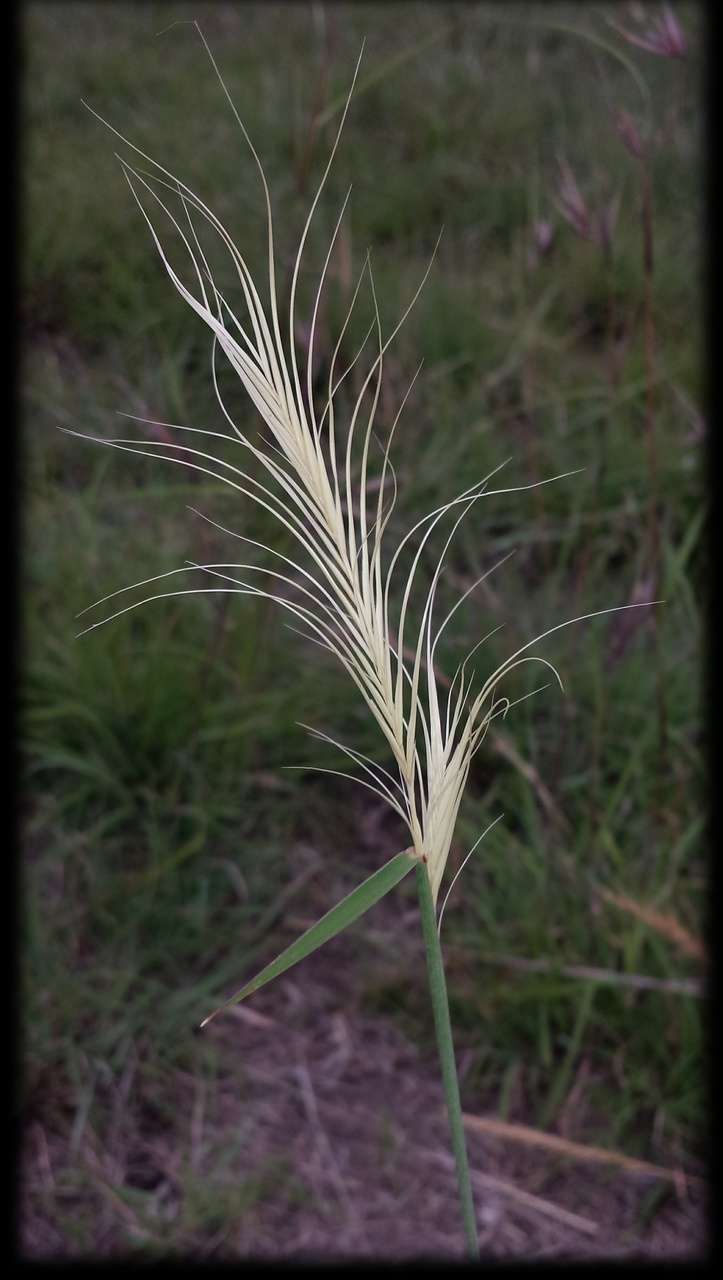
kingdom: Plantae
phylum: Tracheophyta
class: Liliopsida
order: Poales
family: Poaceae
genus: Anthosachne
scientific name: Anthosachne scabra
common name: Common wheatgrass
